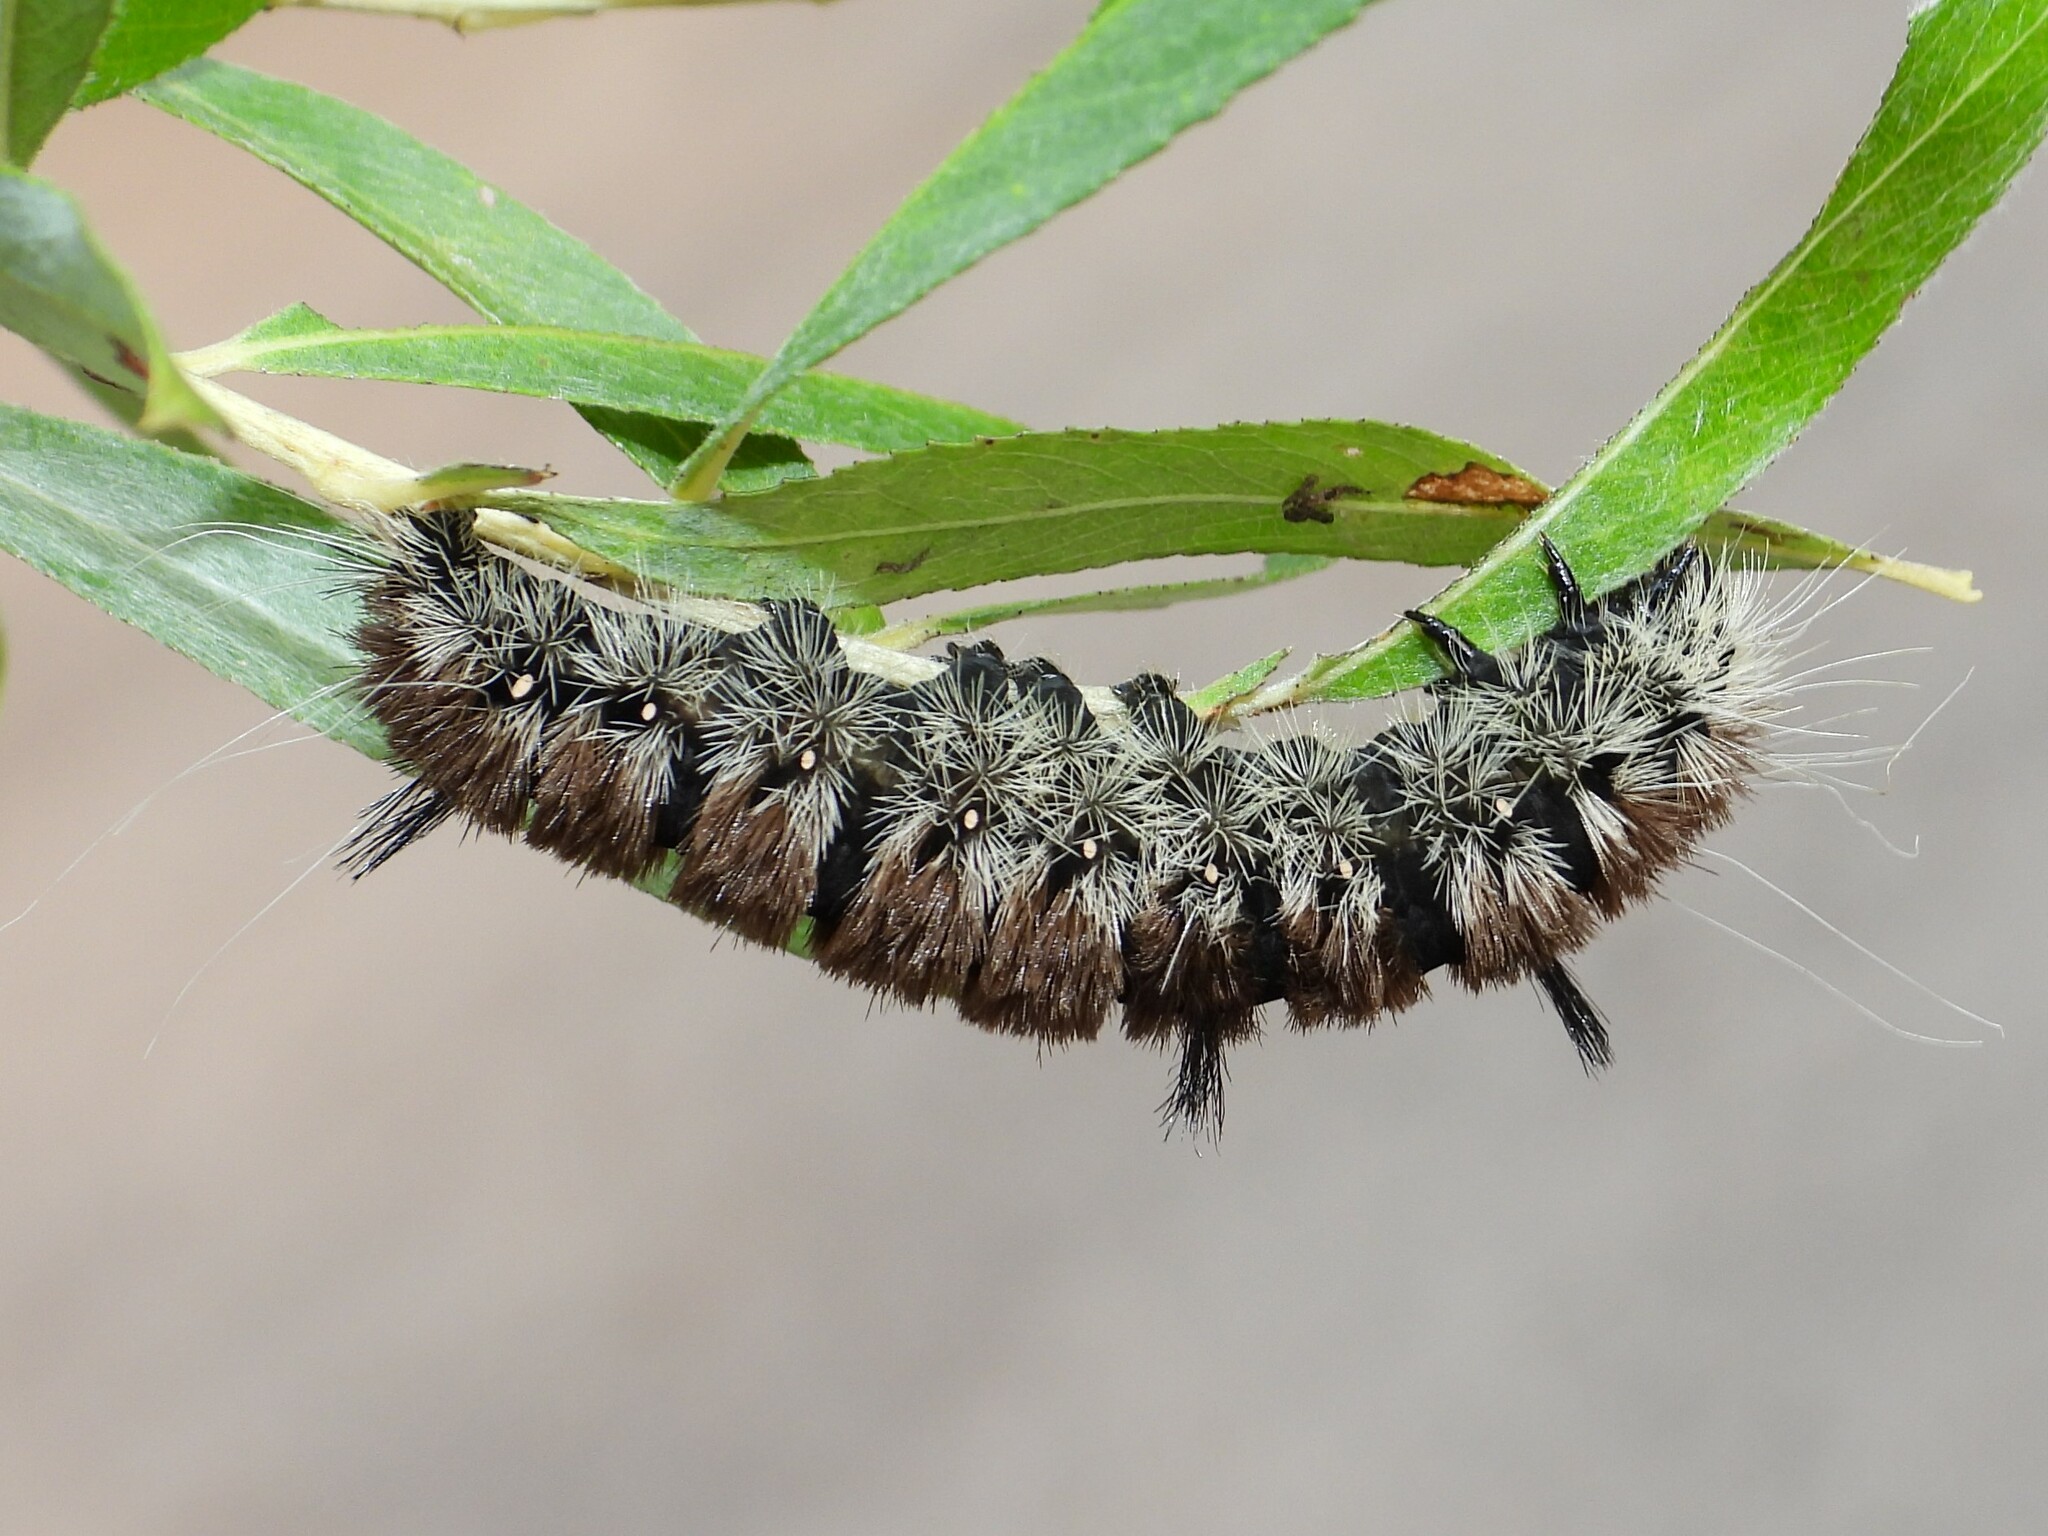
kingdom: Animalia
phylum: Arthropoda
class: Insecta
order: Lepidoptera
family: Noctuidae
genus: Acronicta
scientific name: Acronicta insita
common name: Large gray dagger
